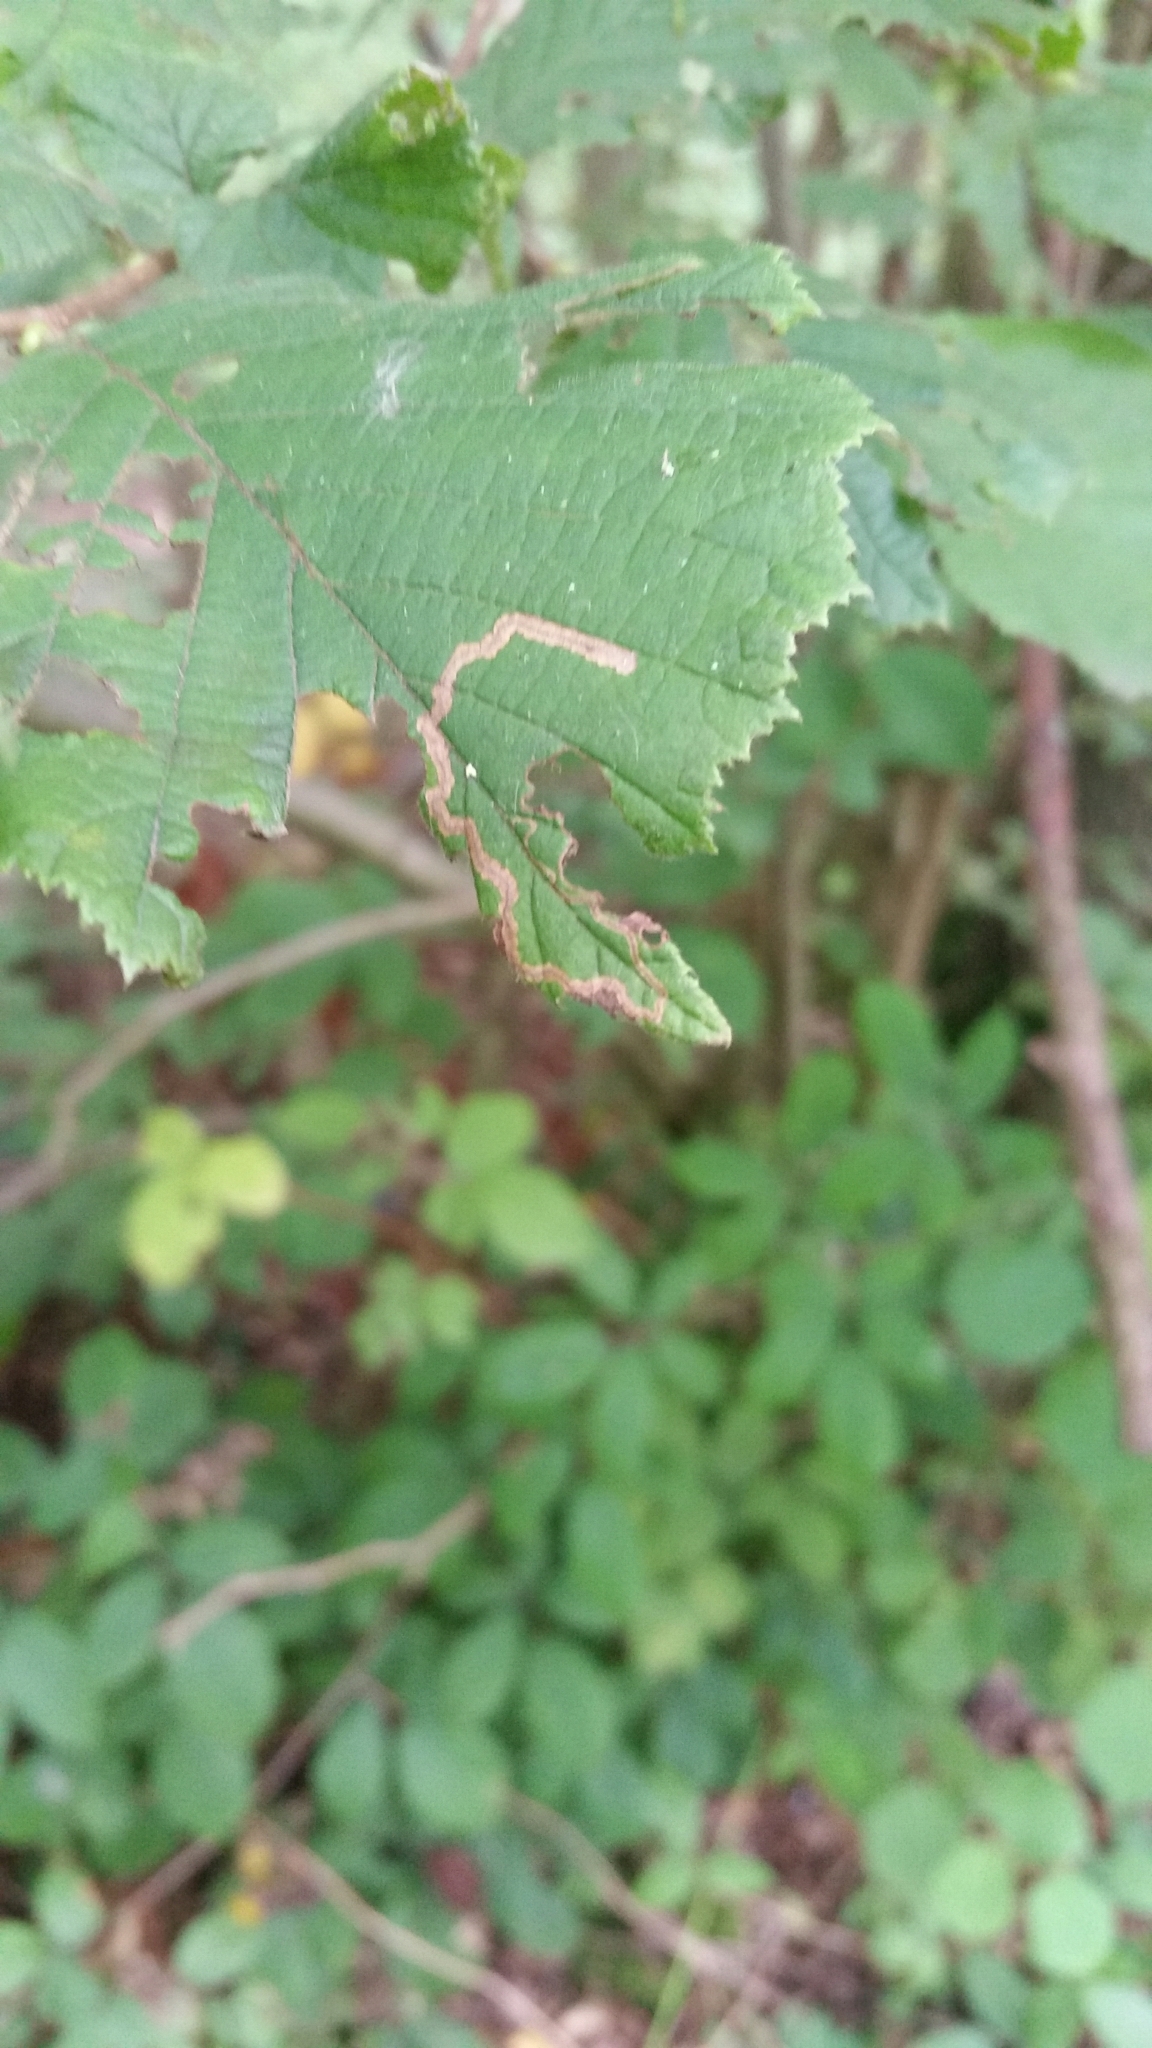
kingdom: Animalia
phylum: Arthropoda
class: Insecta
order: Lepidoptera
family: Nepticulidae
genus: Stigmella
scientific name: Stigmella microtheriella
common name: Nut-tree pigmy
